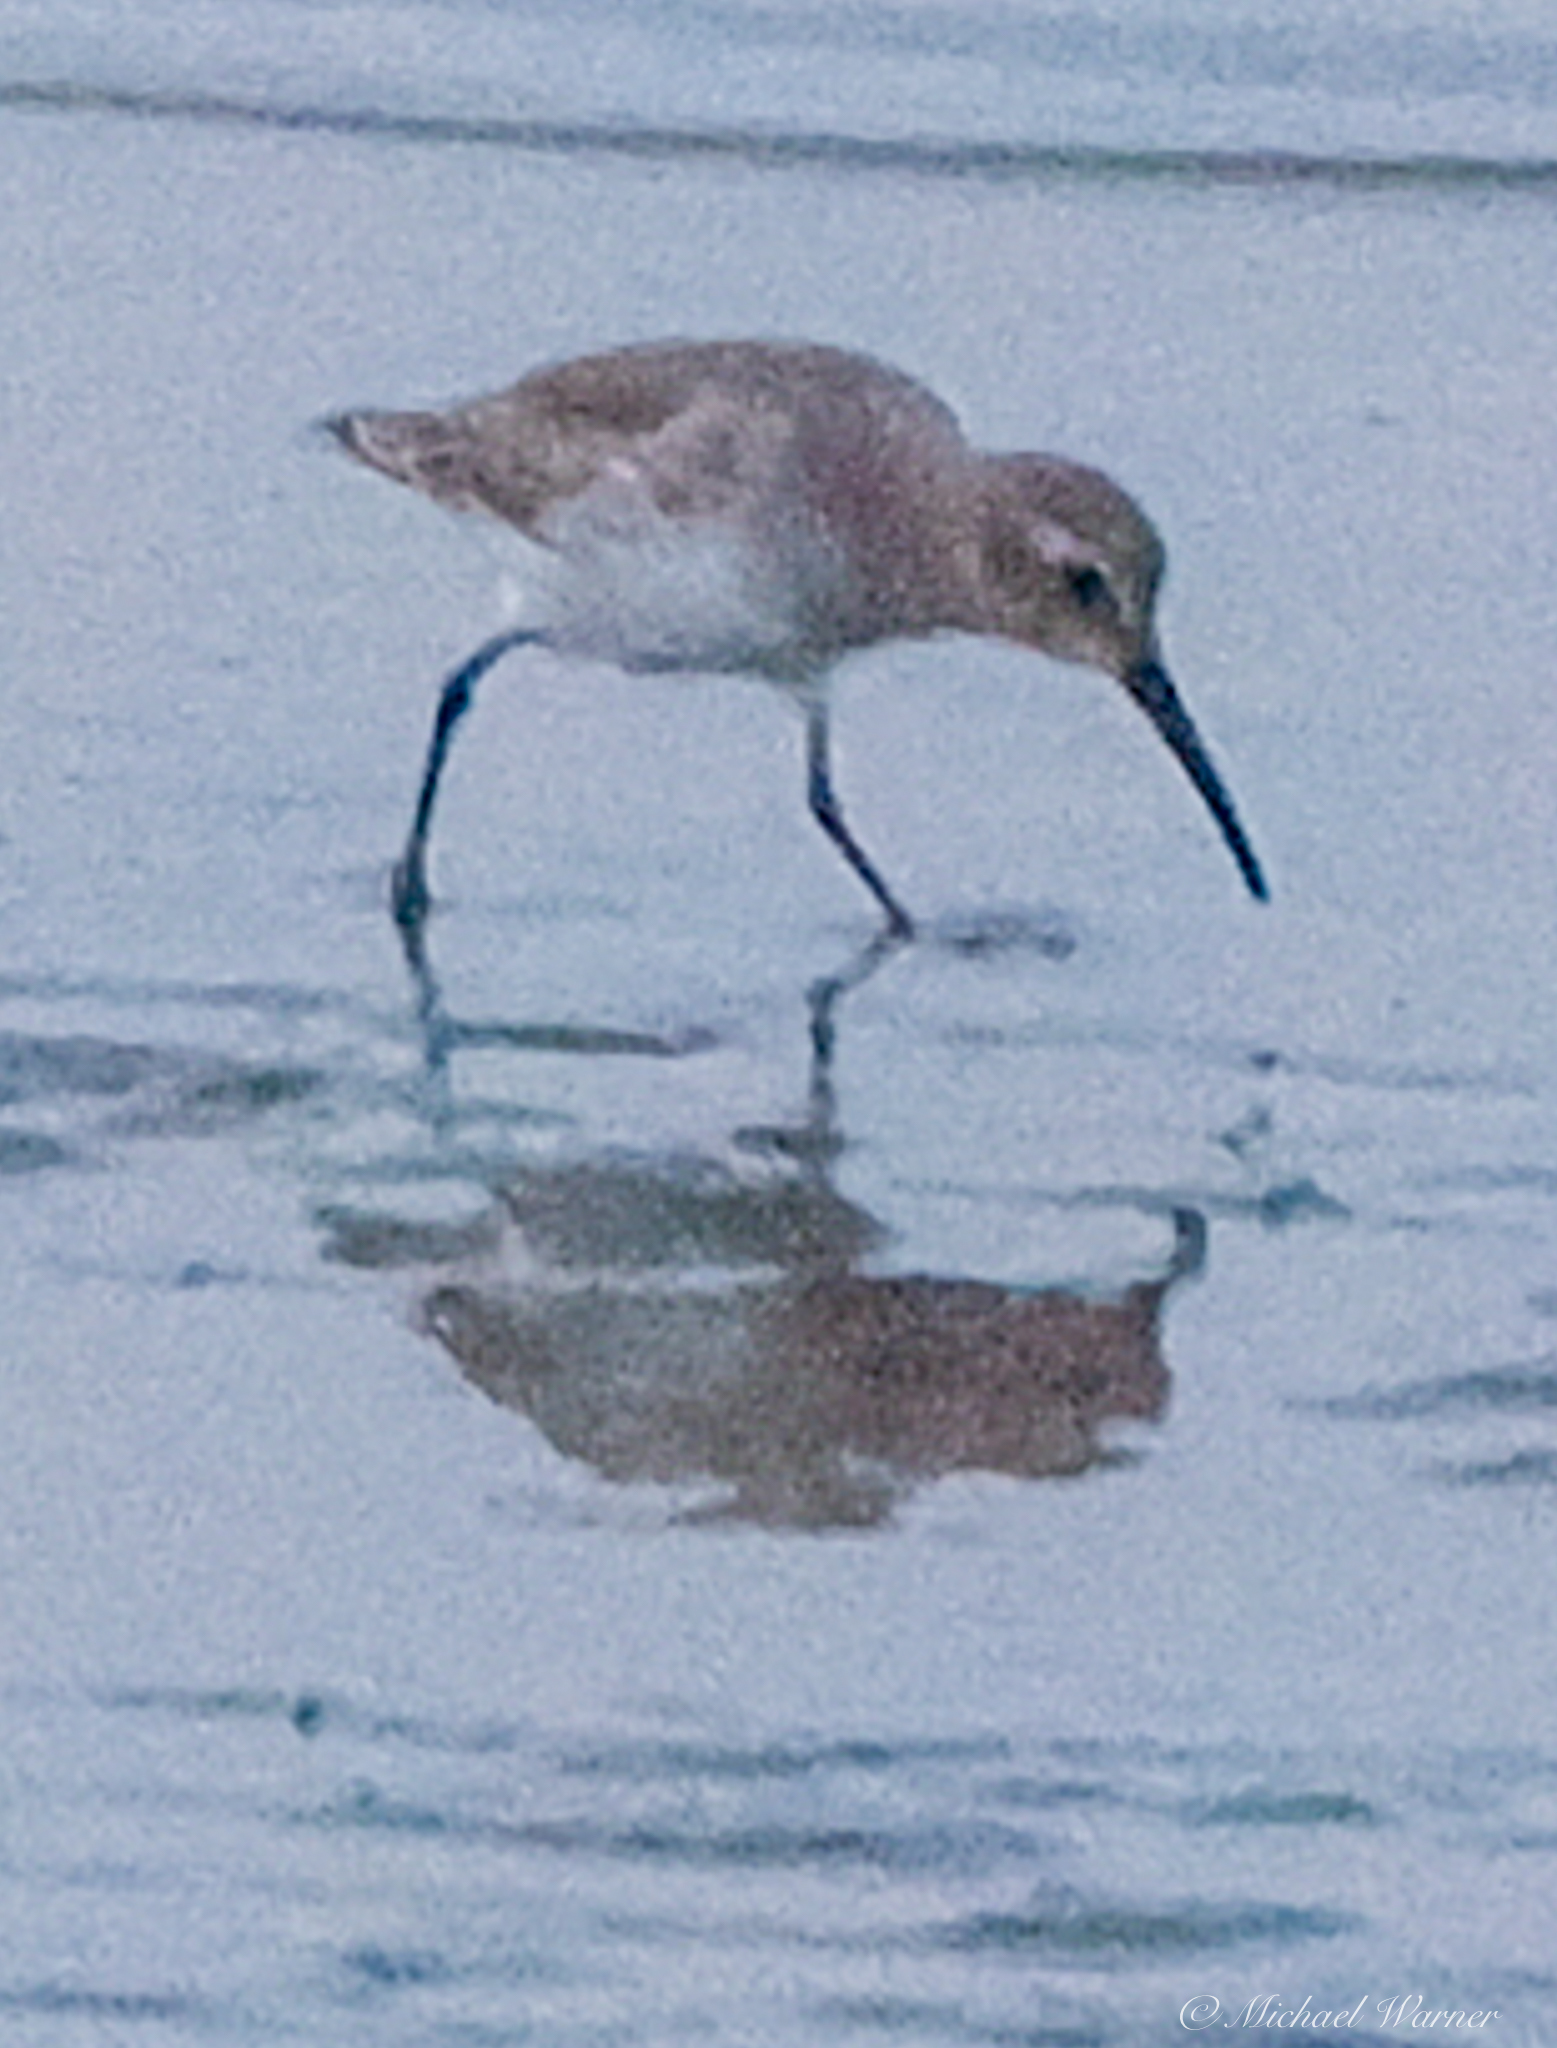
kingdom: Animalia
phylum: Chordata
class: Aves
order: Charadriiformes
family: Scolopacidae
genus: Calidris
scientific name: Calidris alpina
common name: Dunlin
